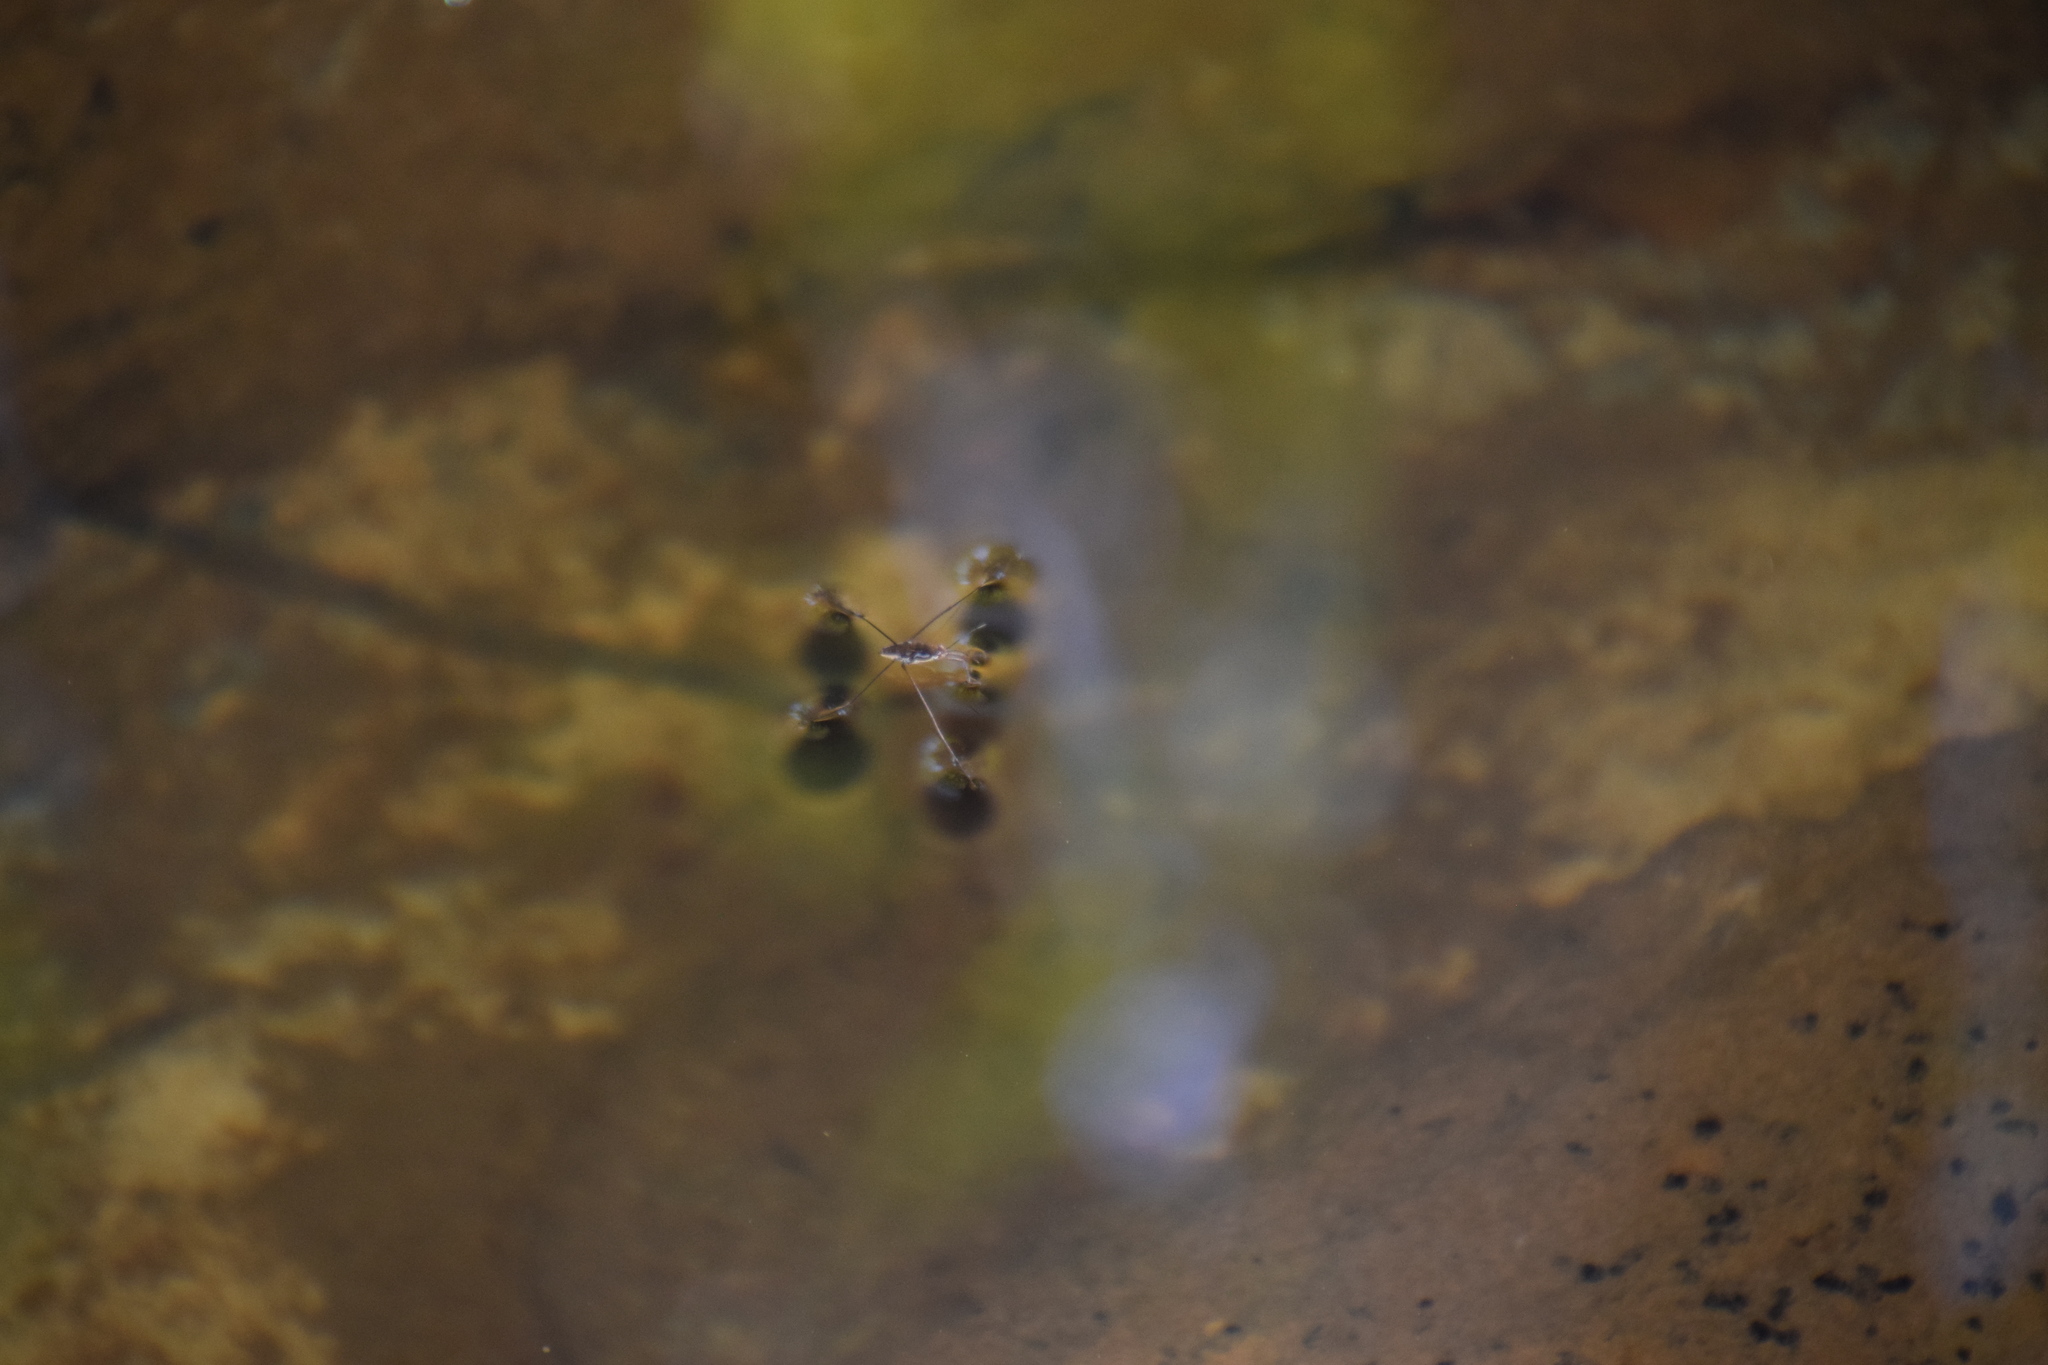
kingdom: Animalia
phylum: Arthropoda
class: Insecta
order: Hemiptera
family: Gerridae
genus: Tenagogerris
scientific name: Tenagogerris
